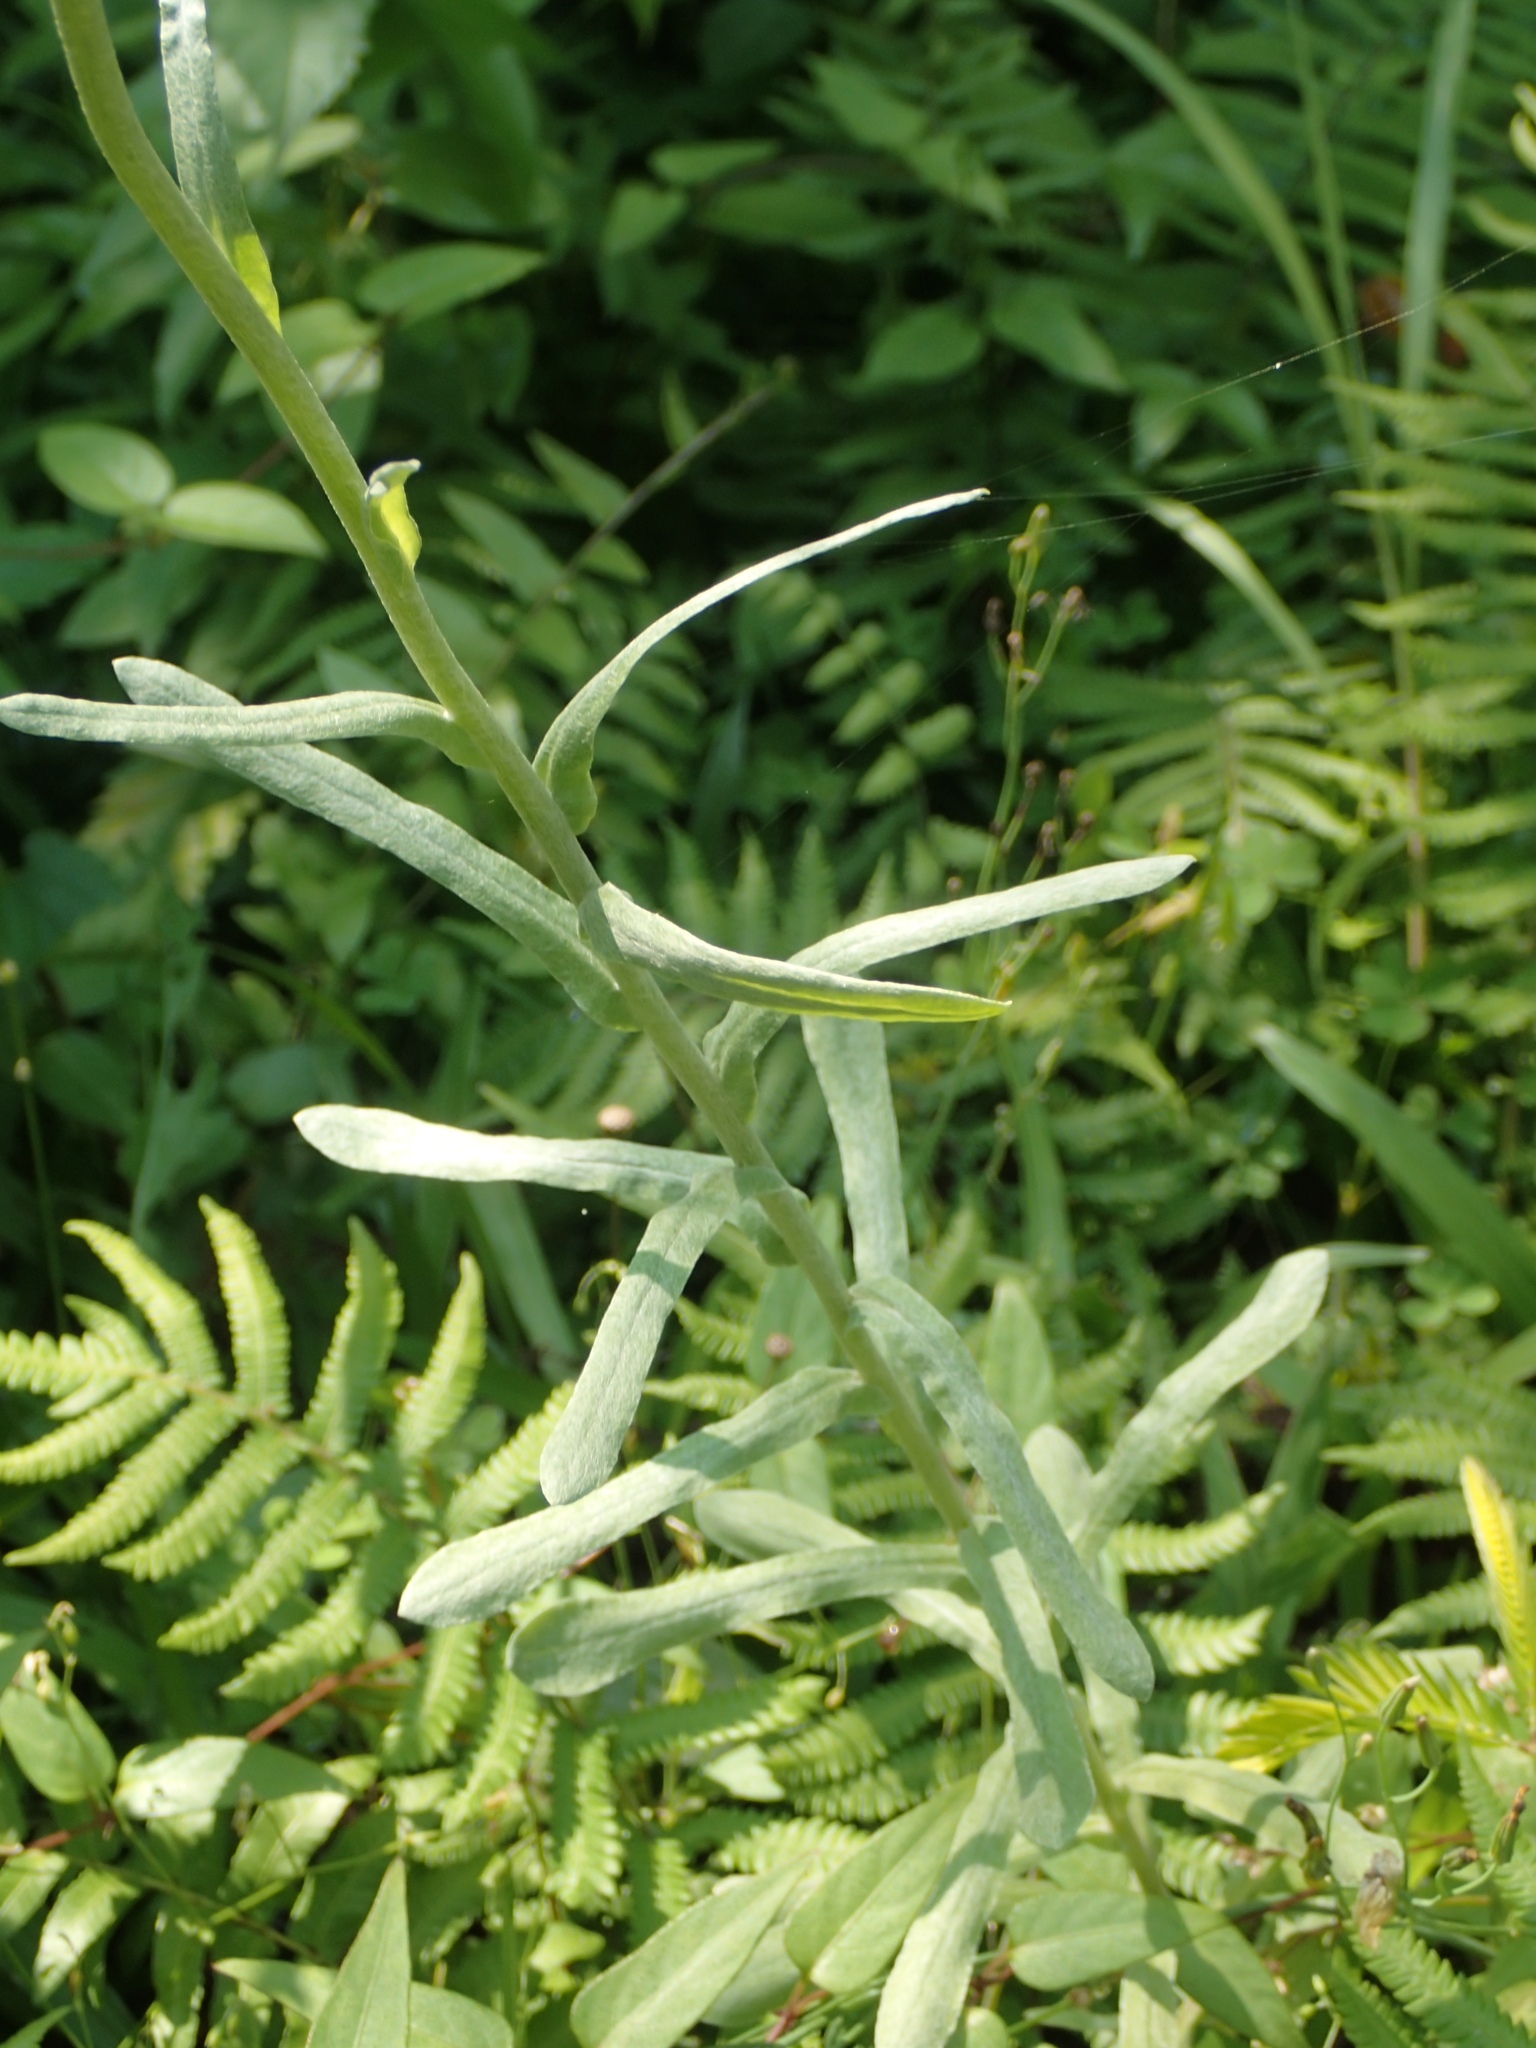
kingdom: Plantae
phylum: Tracheophyta
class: Magnoliopsida
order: Asterales
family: Asteraceae
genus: Pseudognaphalium
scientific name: Pseudognaphalium affine
